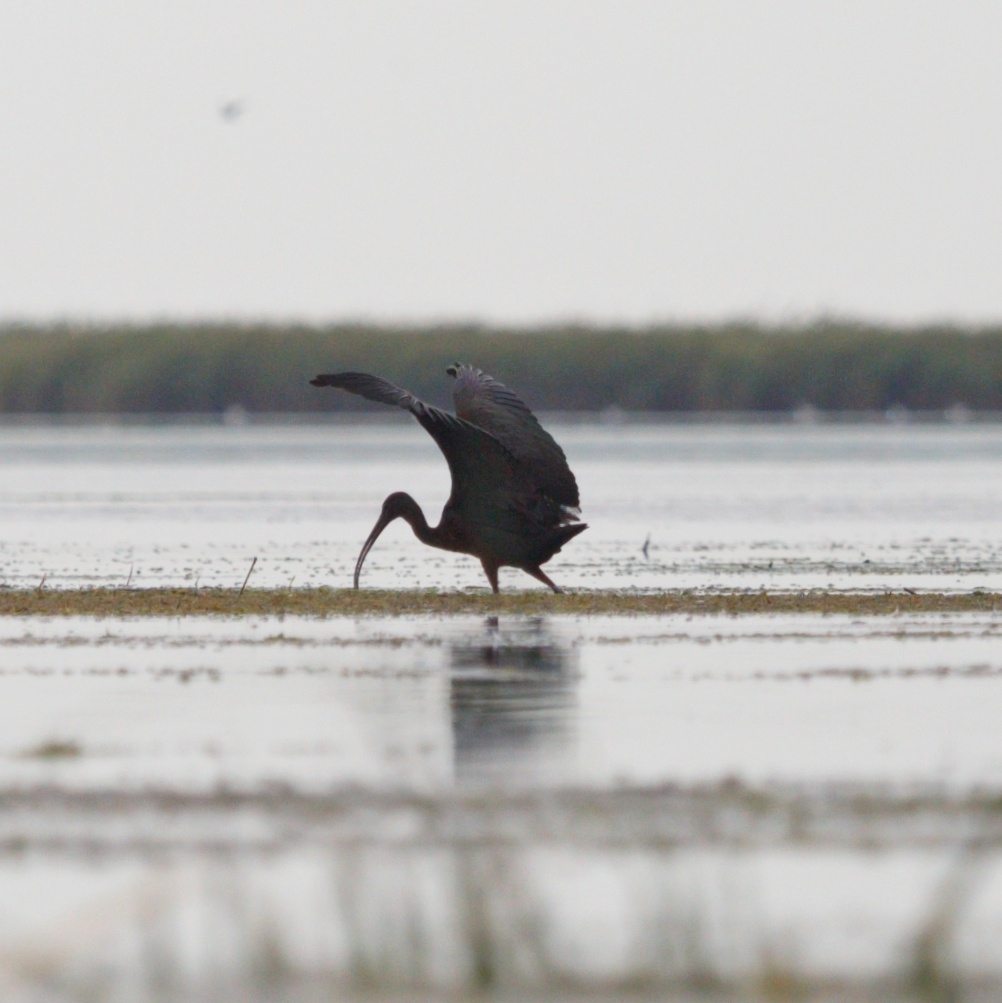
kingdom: Animalia
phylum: Chordata
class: Aves
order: Pelecaniformes
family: Threskiornithidae
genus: Plegadis
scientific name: Plegadis falcinellus
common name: Glossy ibis
